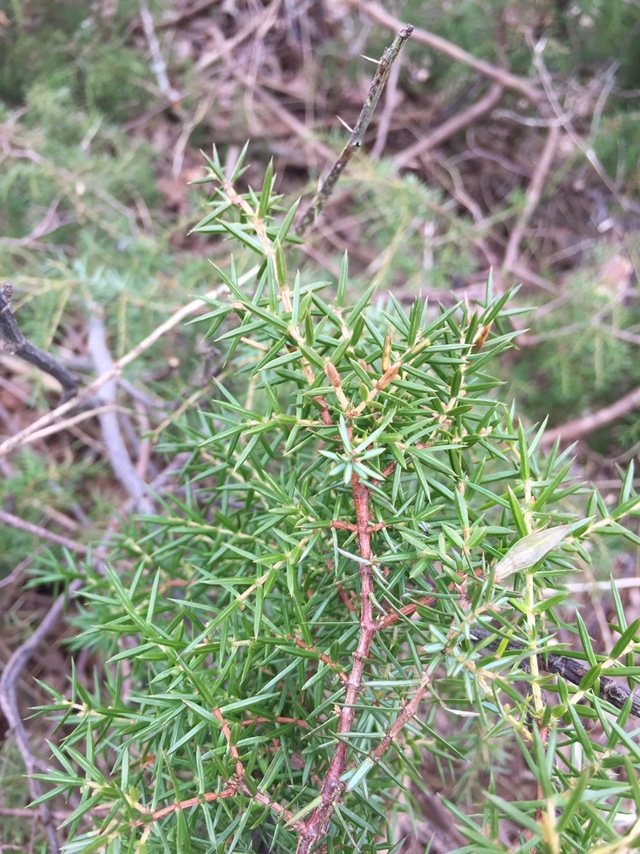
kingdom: Plantae
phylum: Tracheophyta
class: Pinopsida
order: Pinales
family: Cupressaceae
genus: Juniperus
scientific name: Juniperus communis
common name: Common juniper
